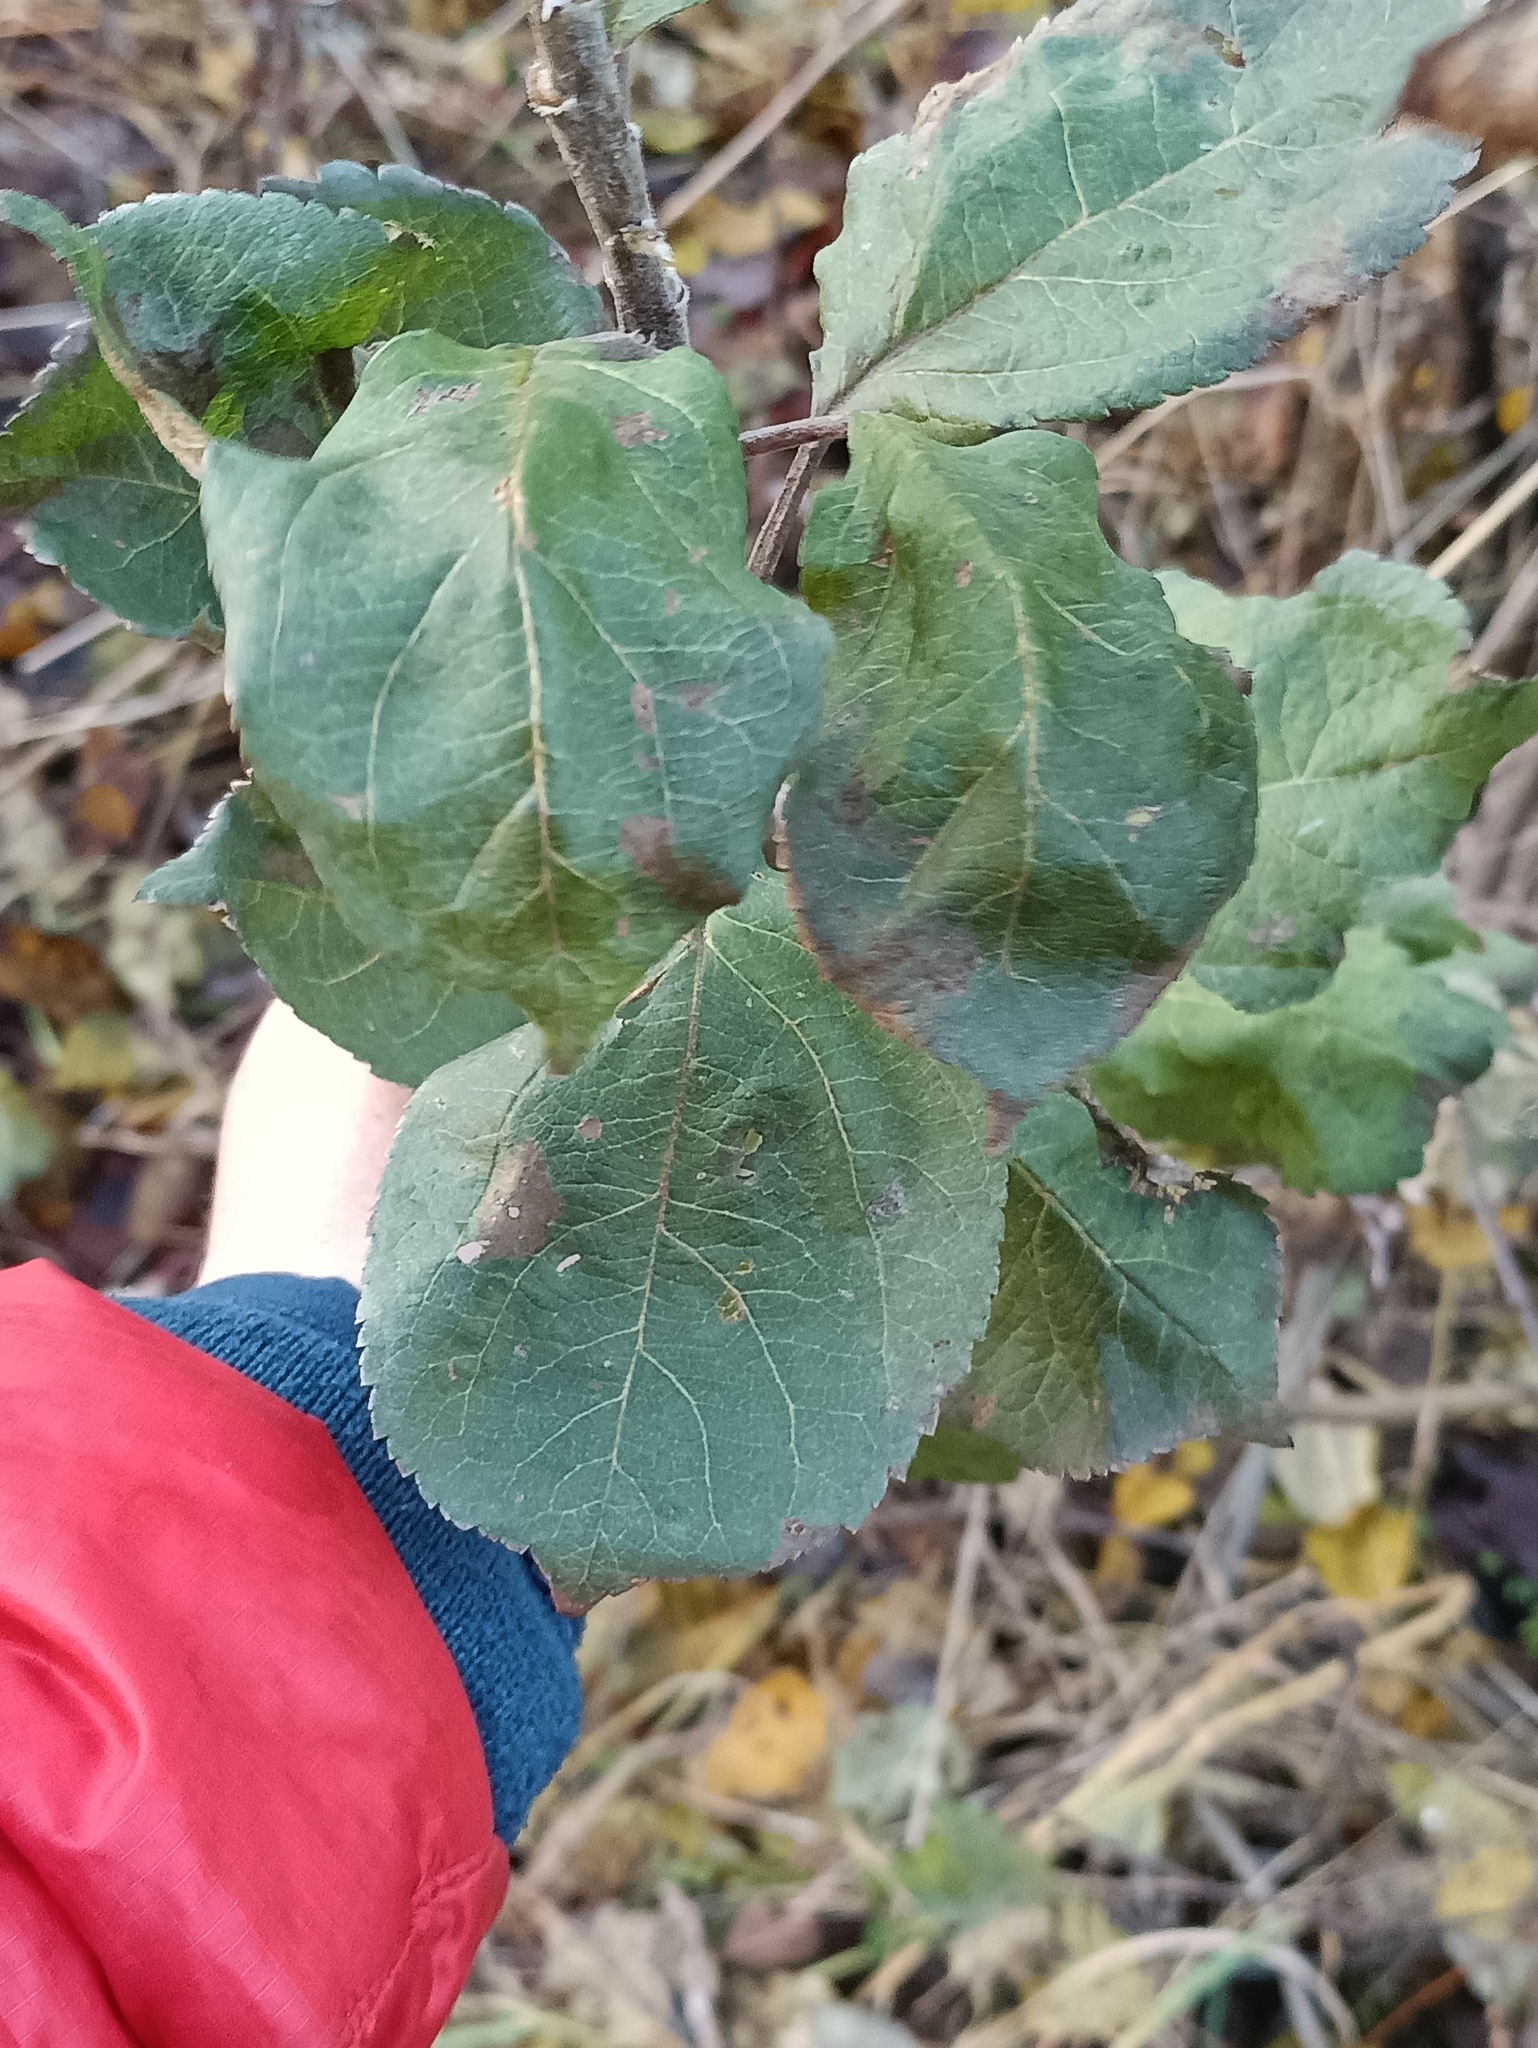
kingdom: Plantae
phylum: Tracheophyta
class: Magnoliopsida
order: Rosales
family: Rosaceae
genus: Malus
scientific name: Malus domestica
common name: Apple
